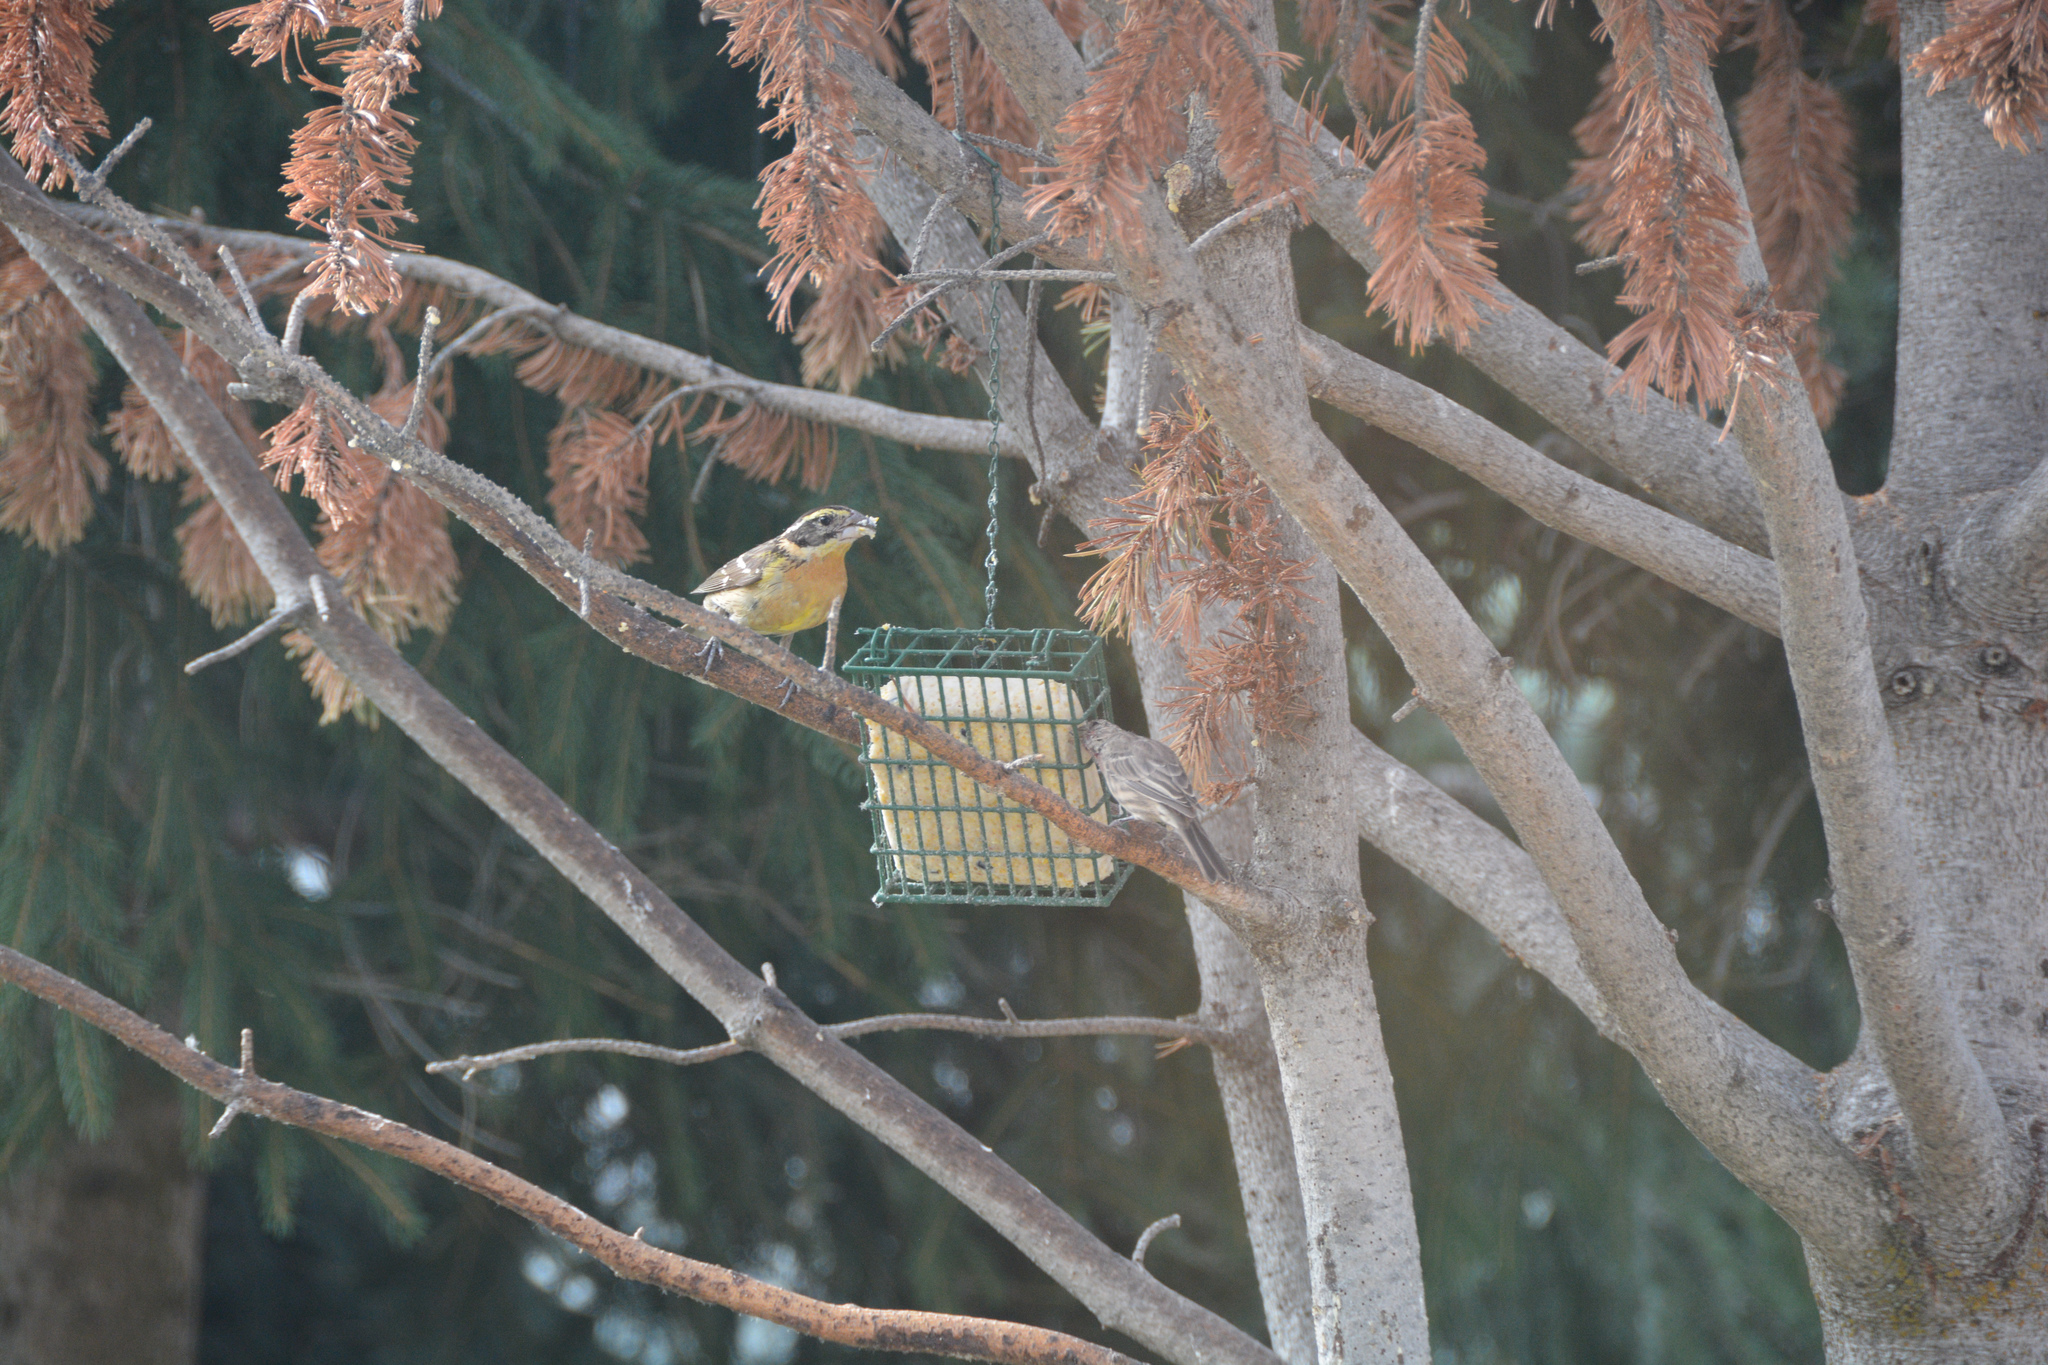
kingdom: Animalia
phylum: Chordata
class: Aves
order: Passeriformes
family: Cardinalidae
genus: Pheucticus
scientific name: Pheucticus melanocephalus
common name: Black-headed grosbeak
